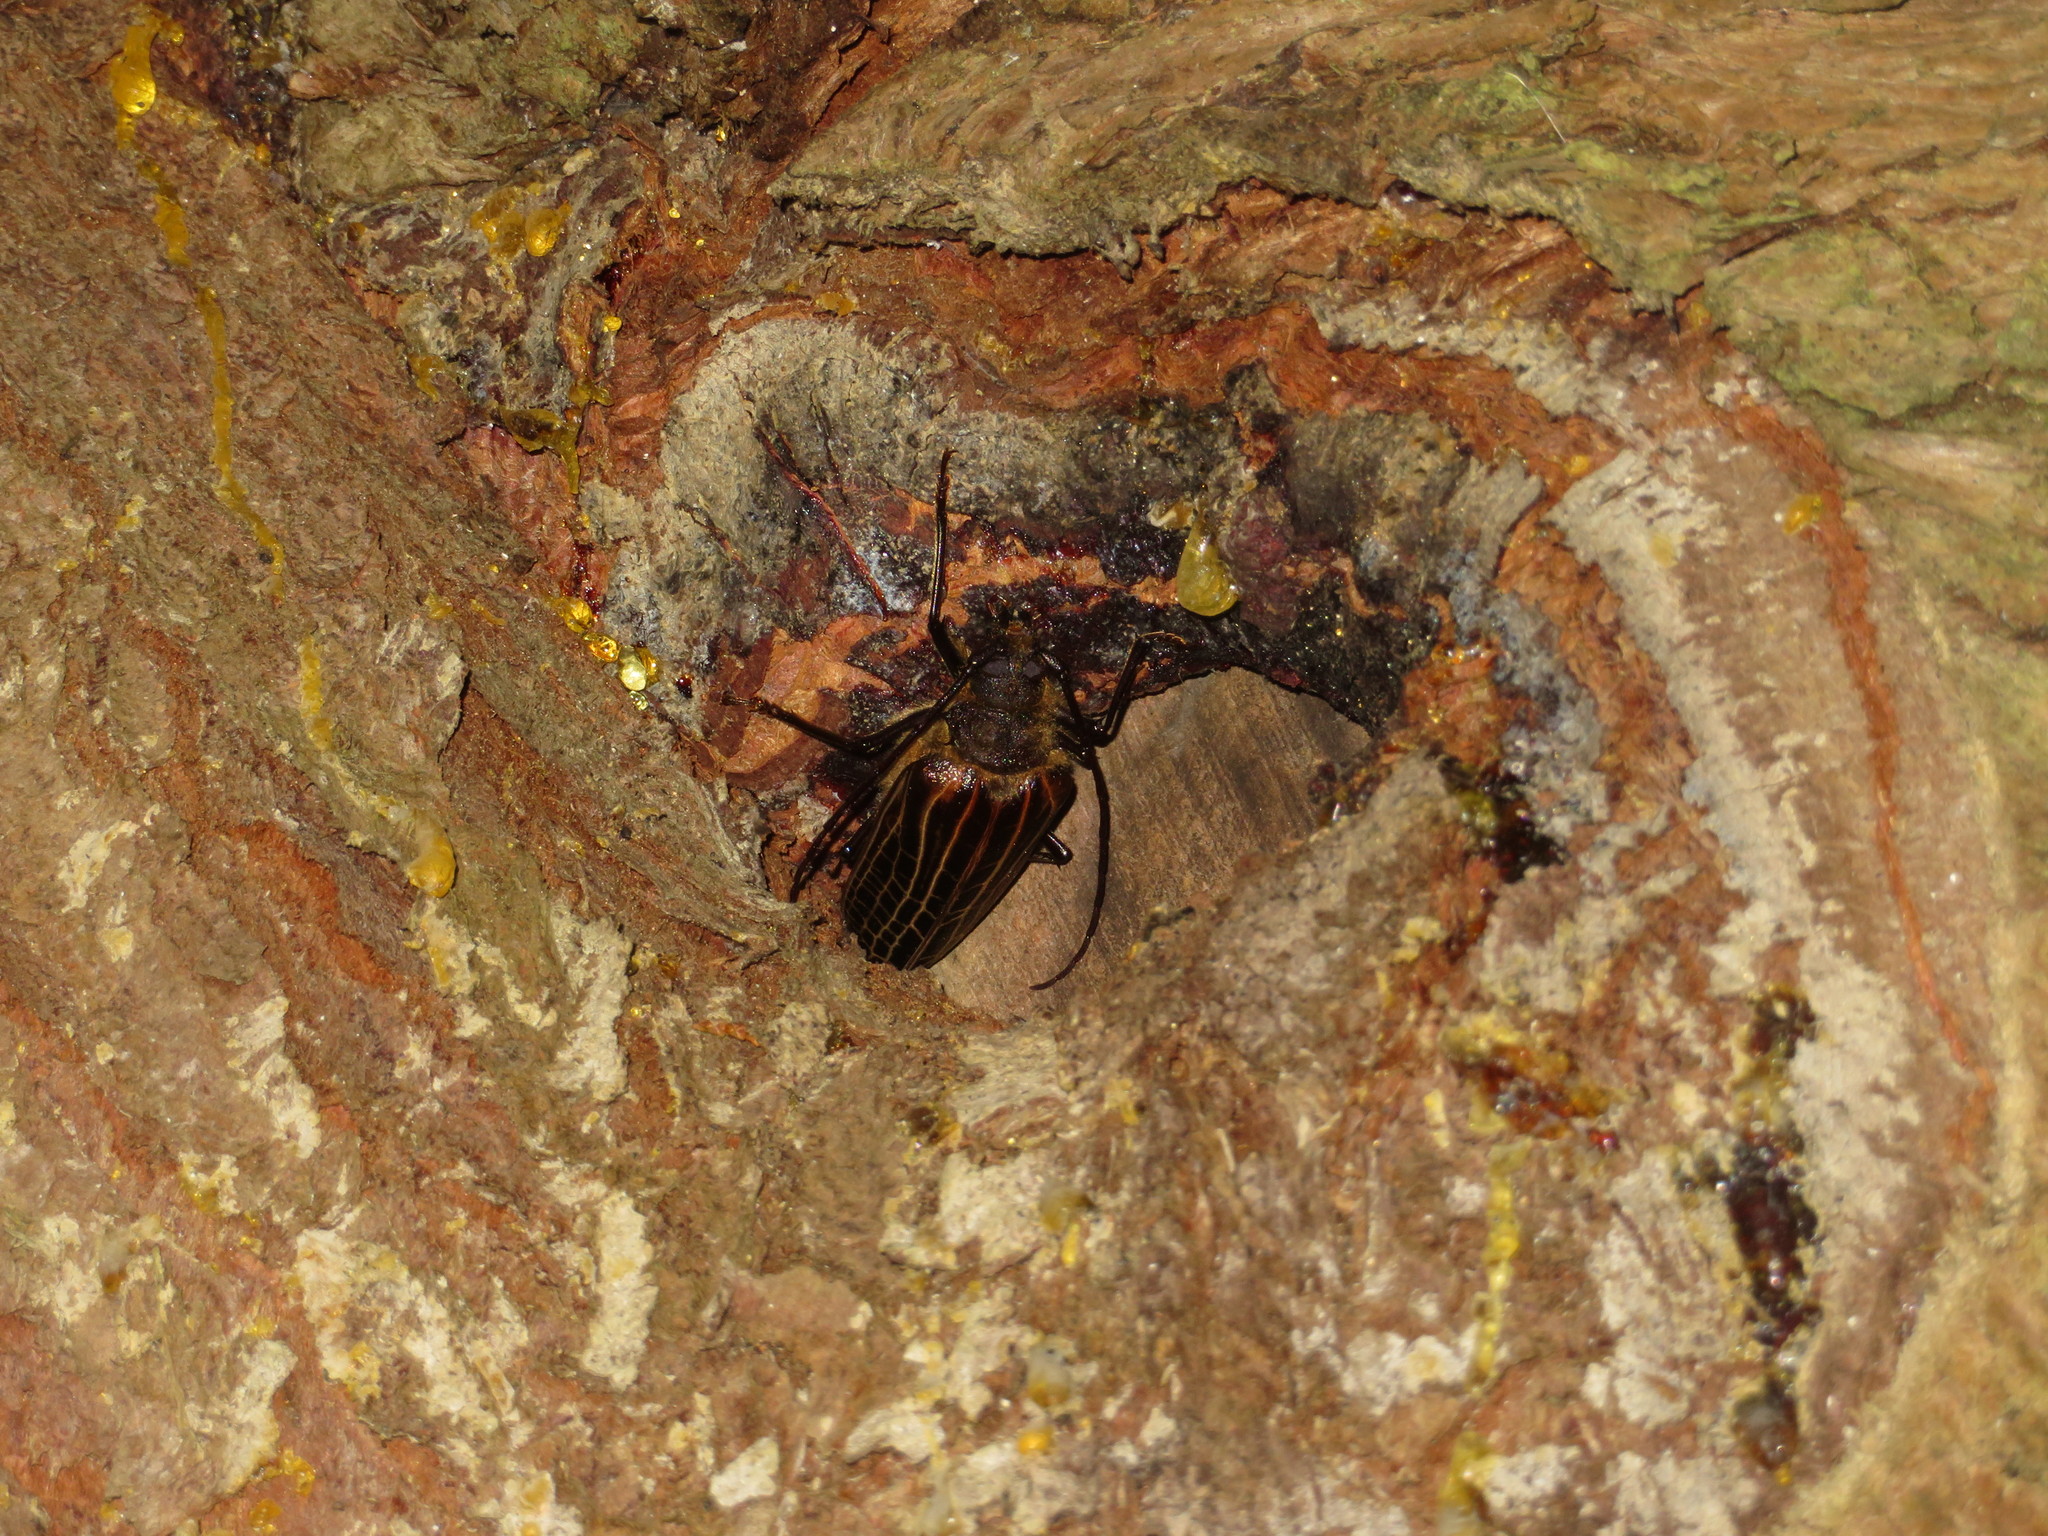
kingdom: Animalia
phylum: Arthropoda
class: Insecta
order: Coleoptera
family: Cerambycidae
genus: Prionoplus
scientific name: Prionoplus reticularis
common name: Huhu beetle
